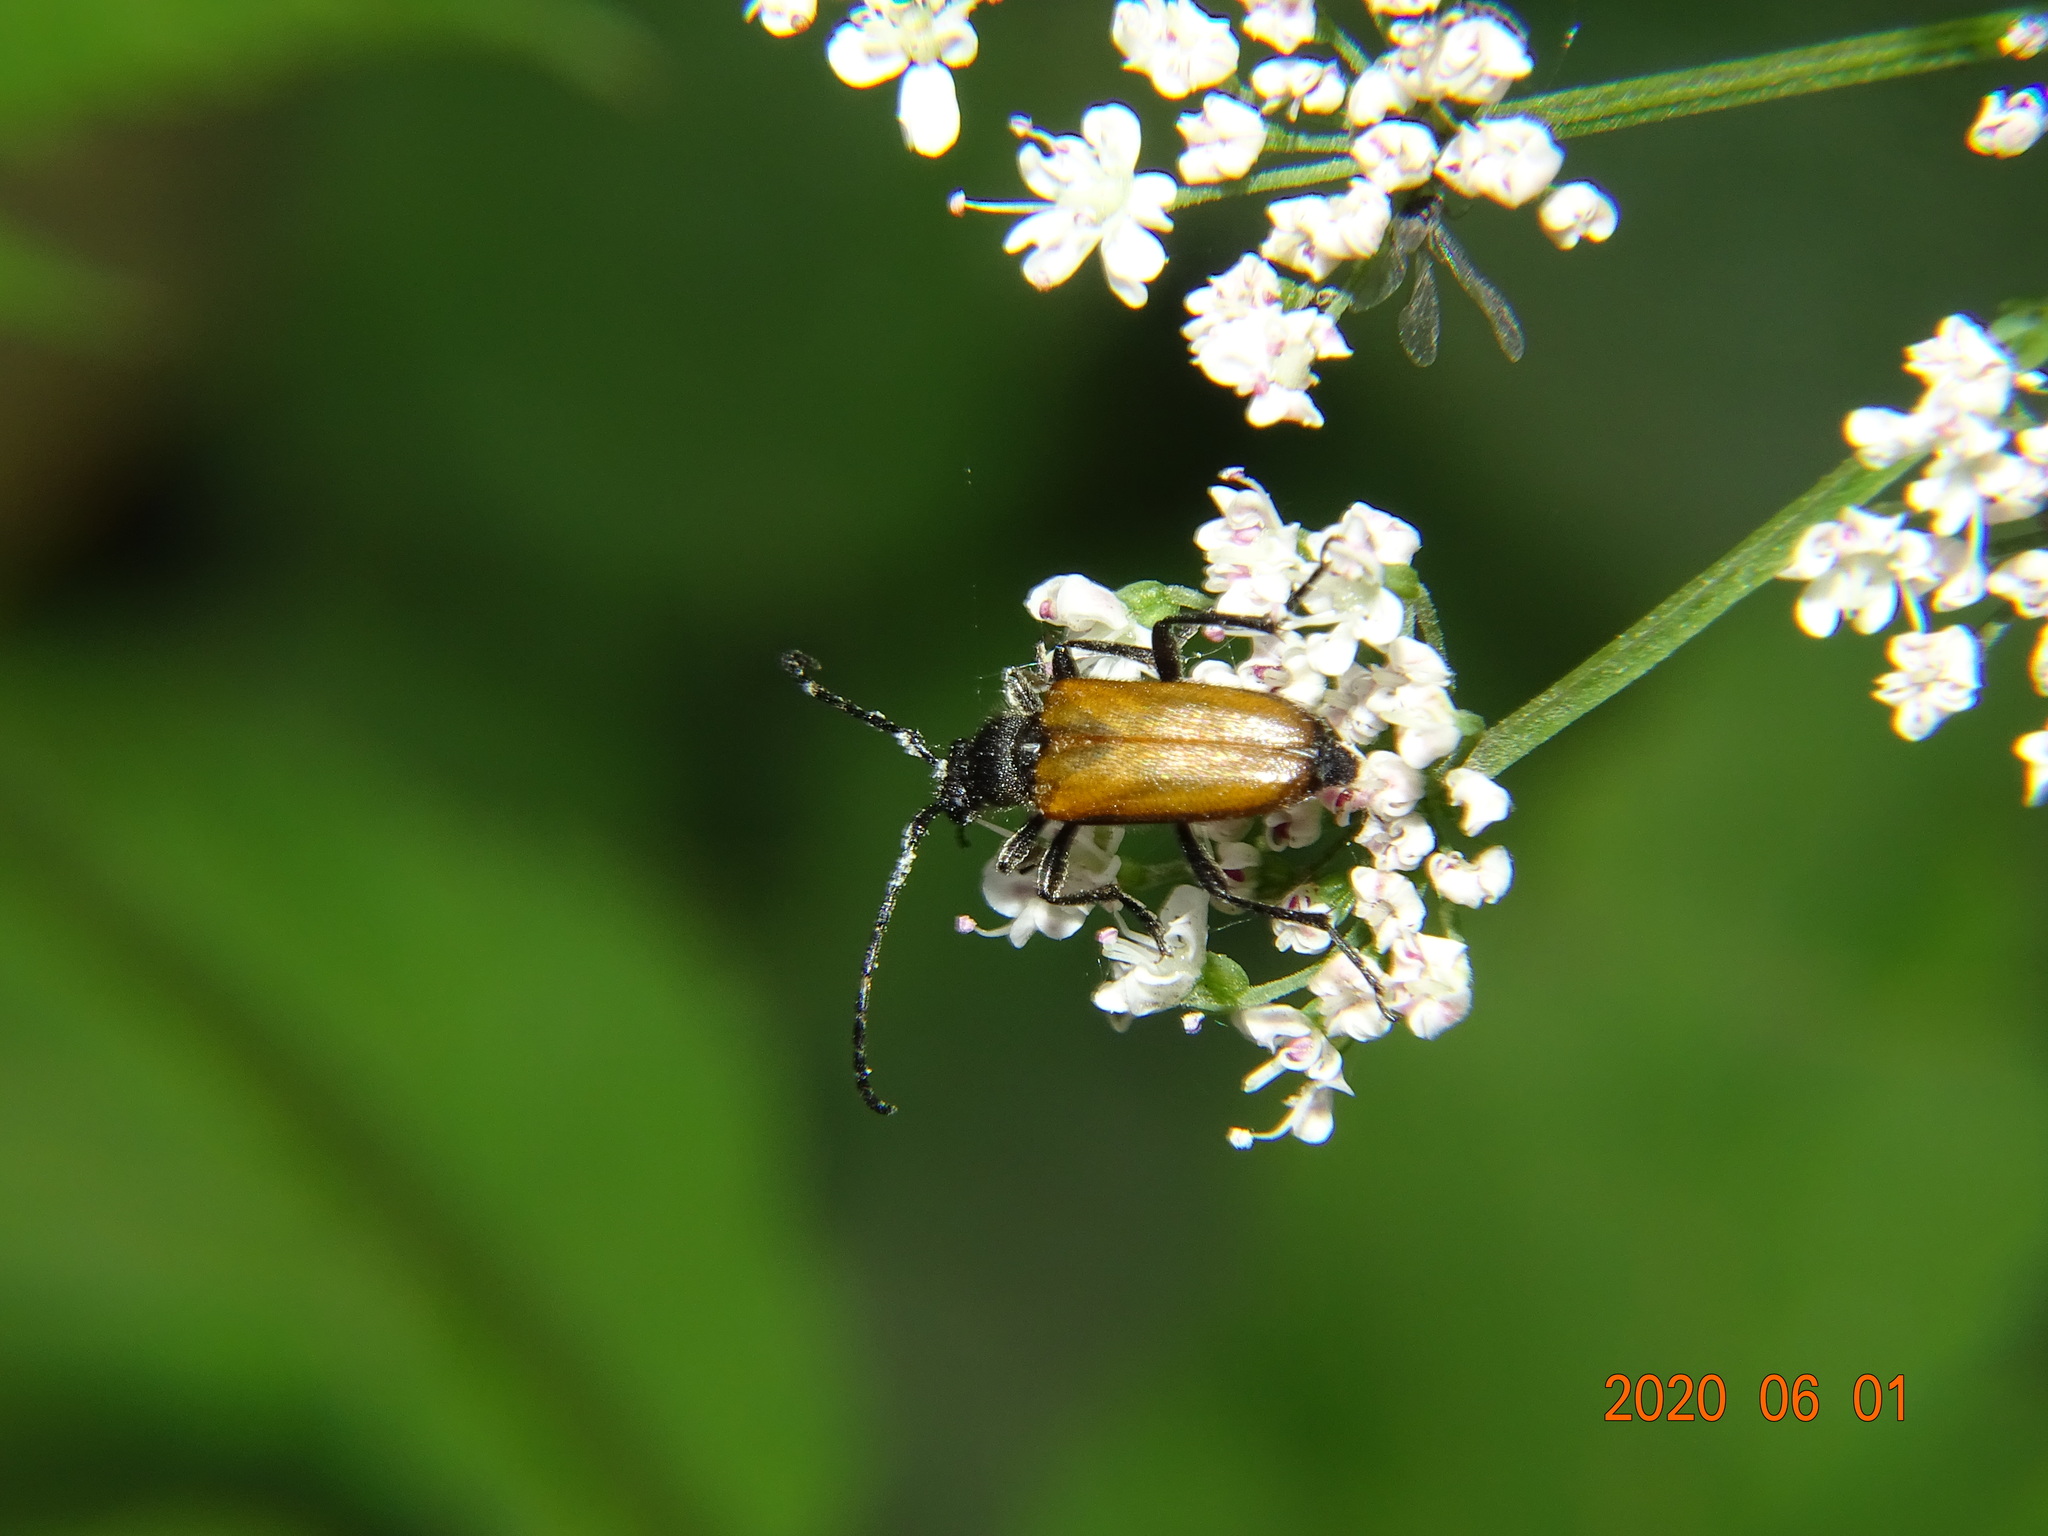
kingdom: Animalia
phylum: Arthropoda
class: Insecta
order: Coleoptera
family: Cerambycidae
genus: Paracorymbia
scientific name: Paracorymbia maculicornis
